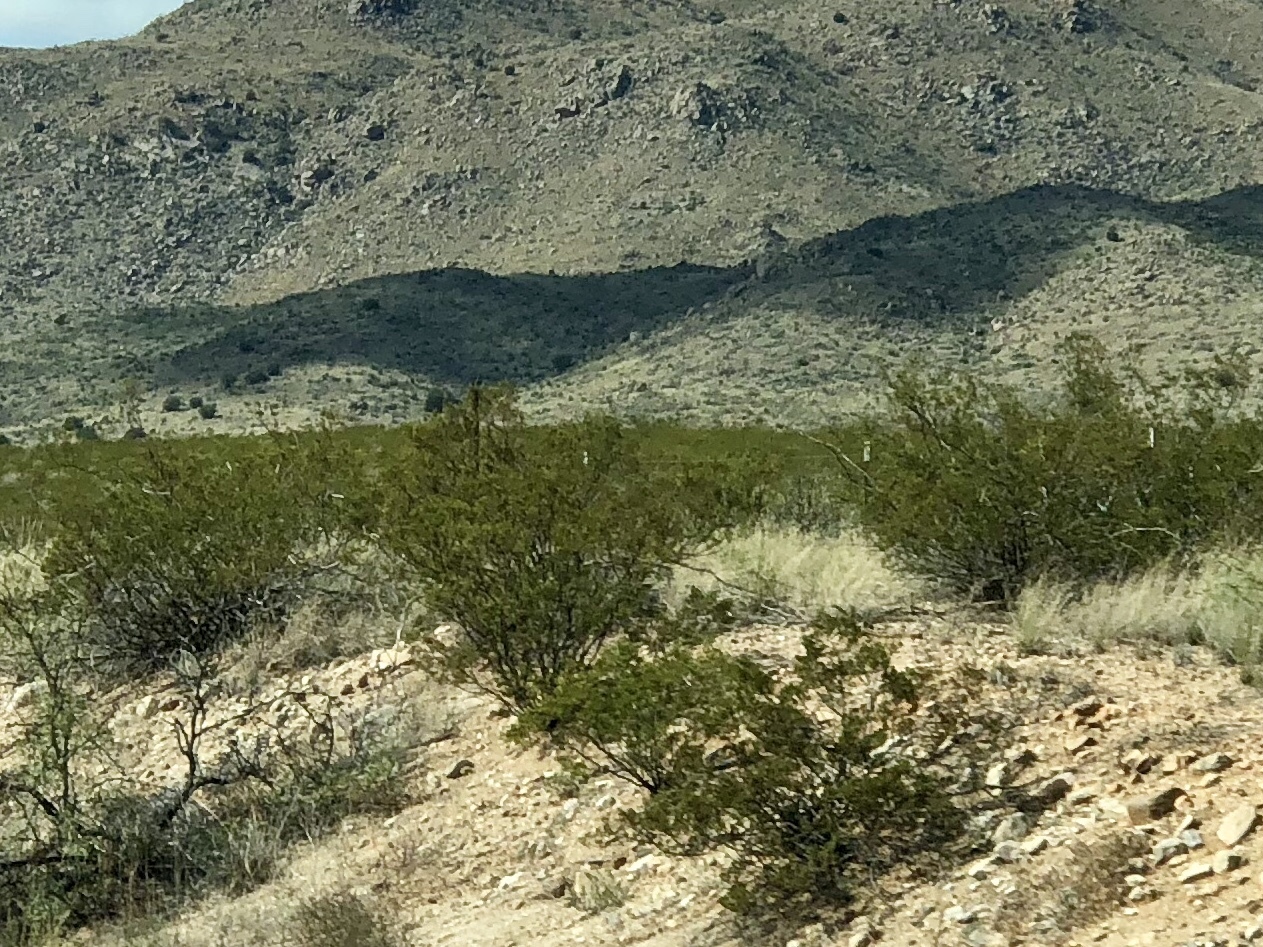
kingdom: Plantae
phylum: Tracheophyta
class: Magnoliopsida
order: Zygophyllales
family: Zygophyllaceae
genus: Larrea
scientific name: Larrea tridentata
